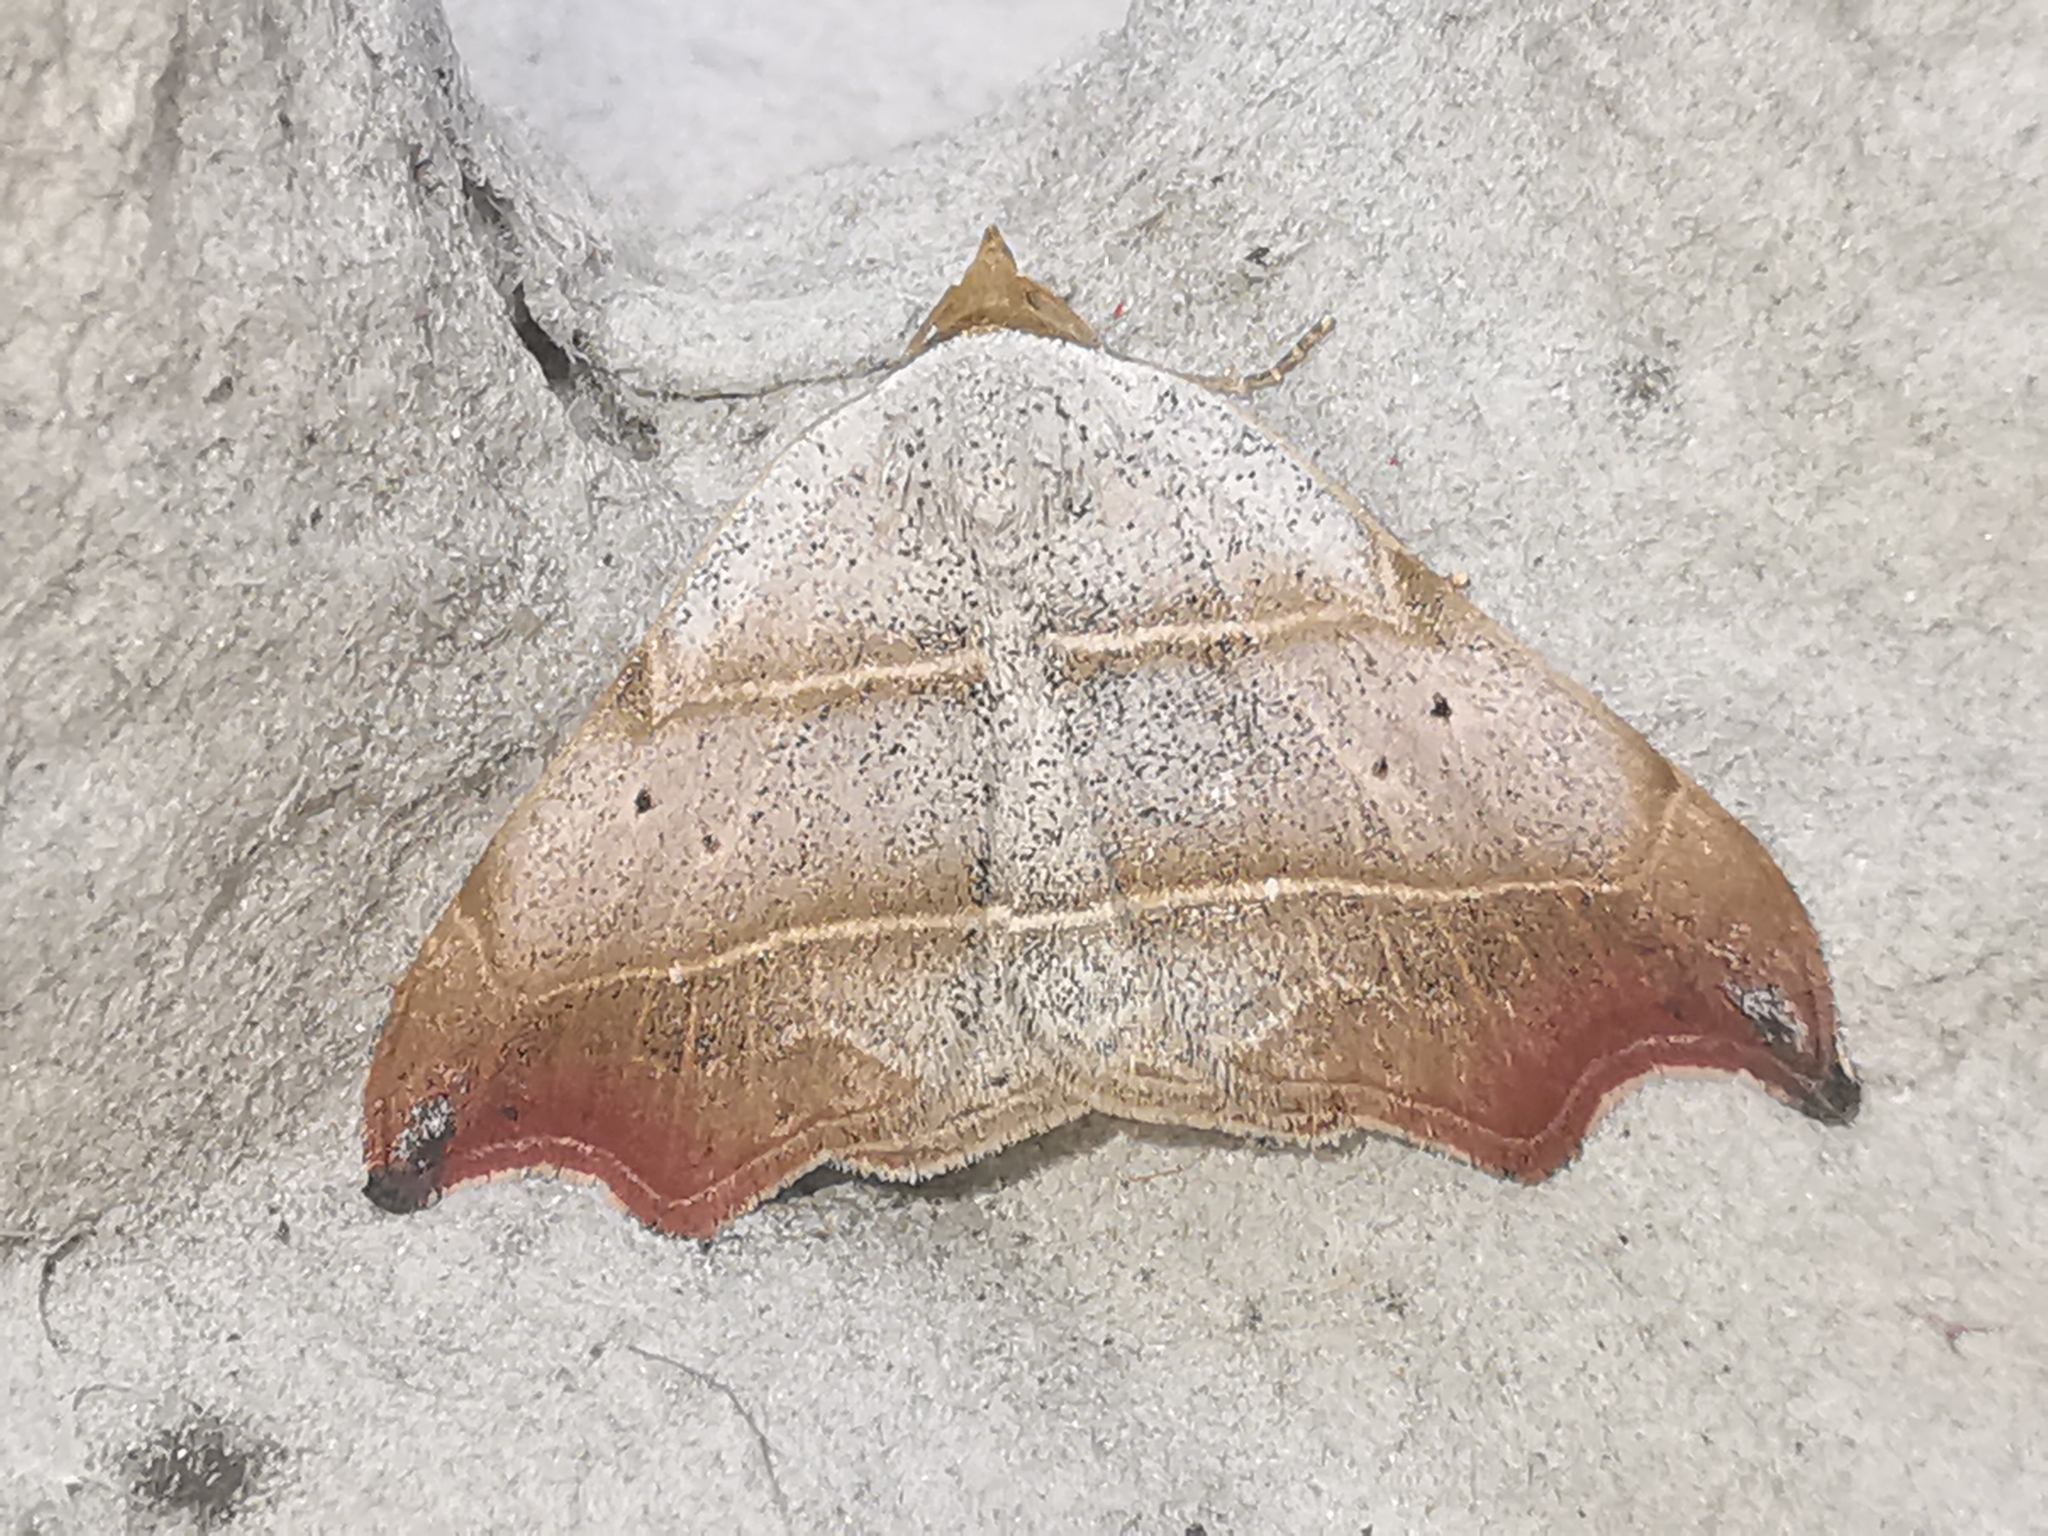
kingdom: Animalia
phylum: Arthropoda
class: Insecta
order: Lepidoptera
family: Erebidae
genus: Laspeyria
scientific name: Laspeyria flexula
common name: Beautiful hook-tip
